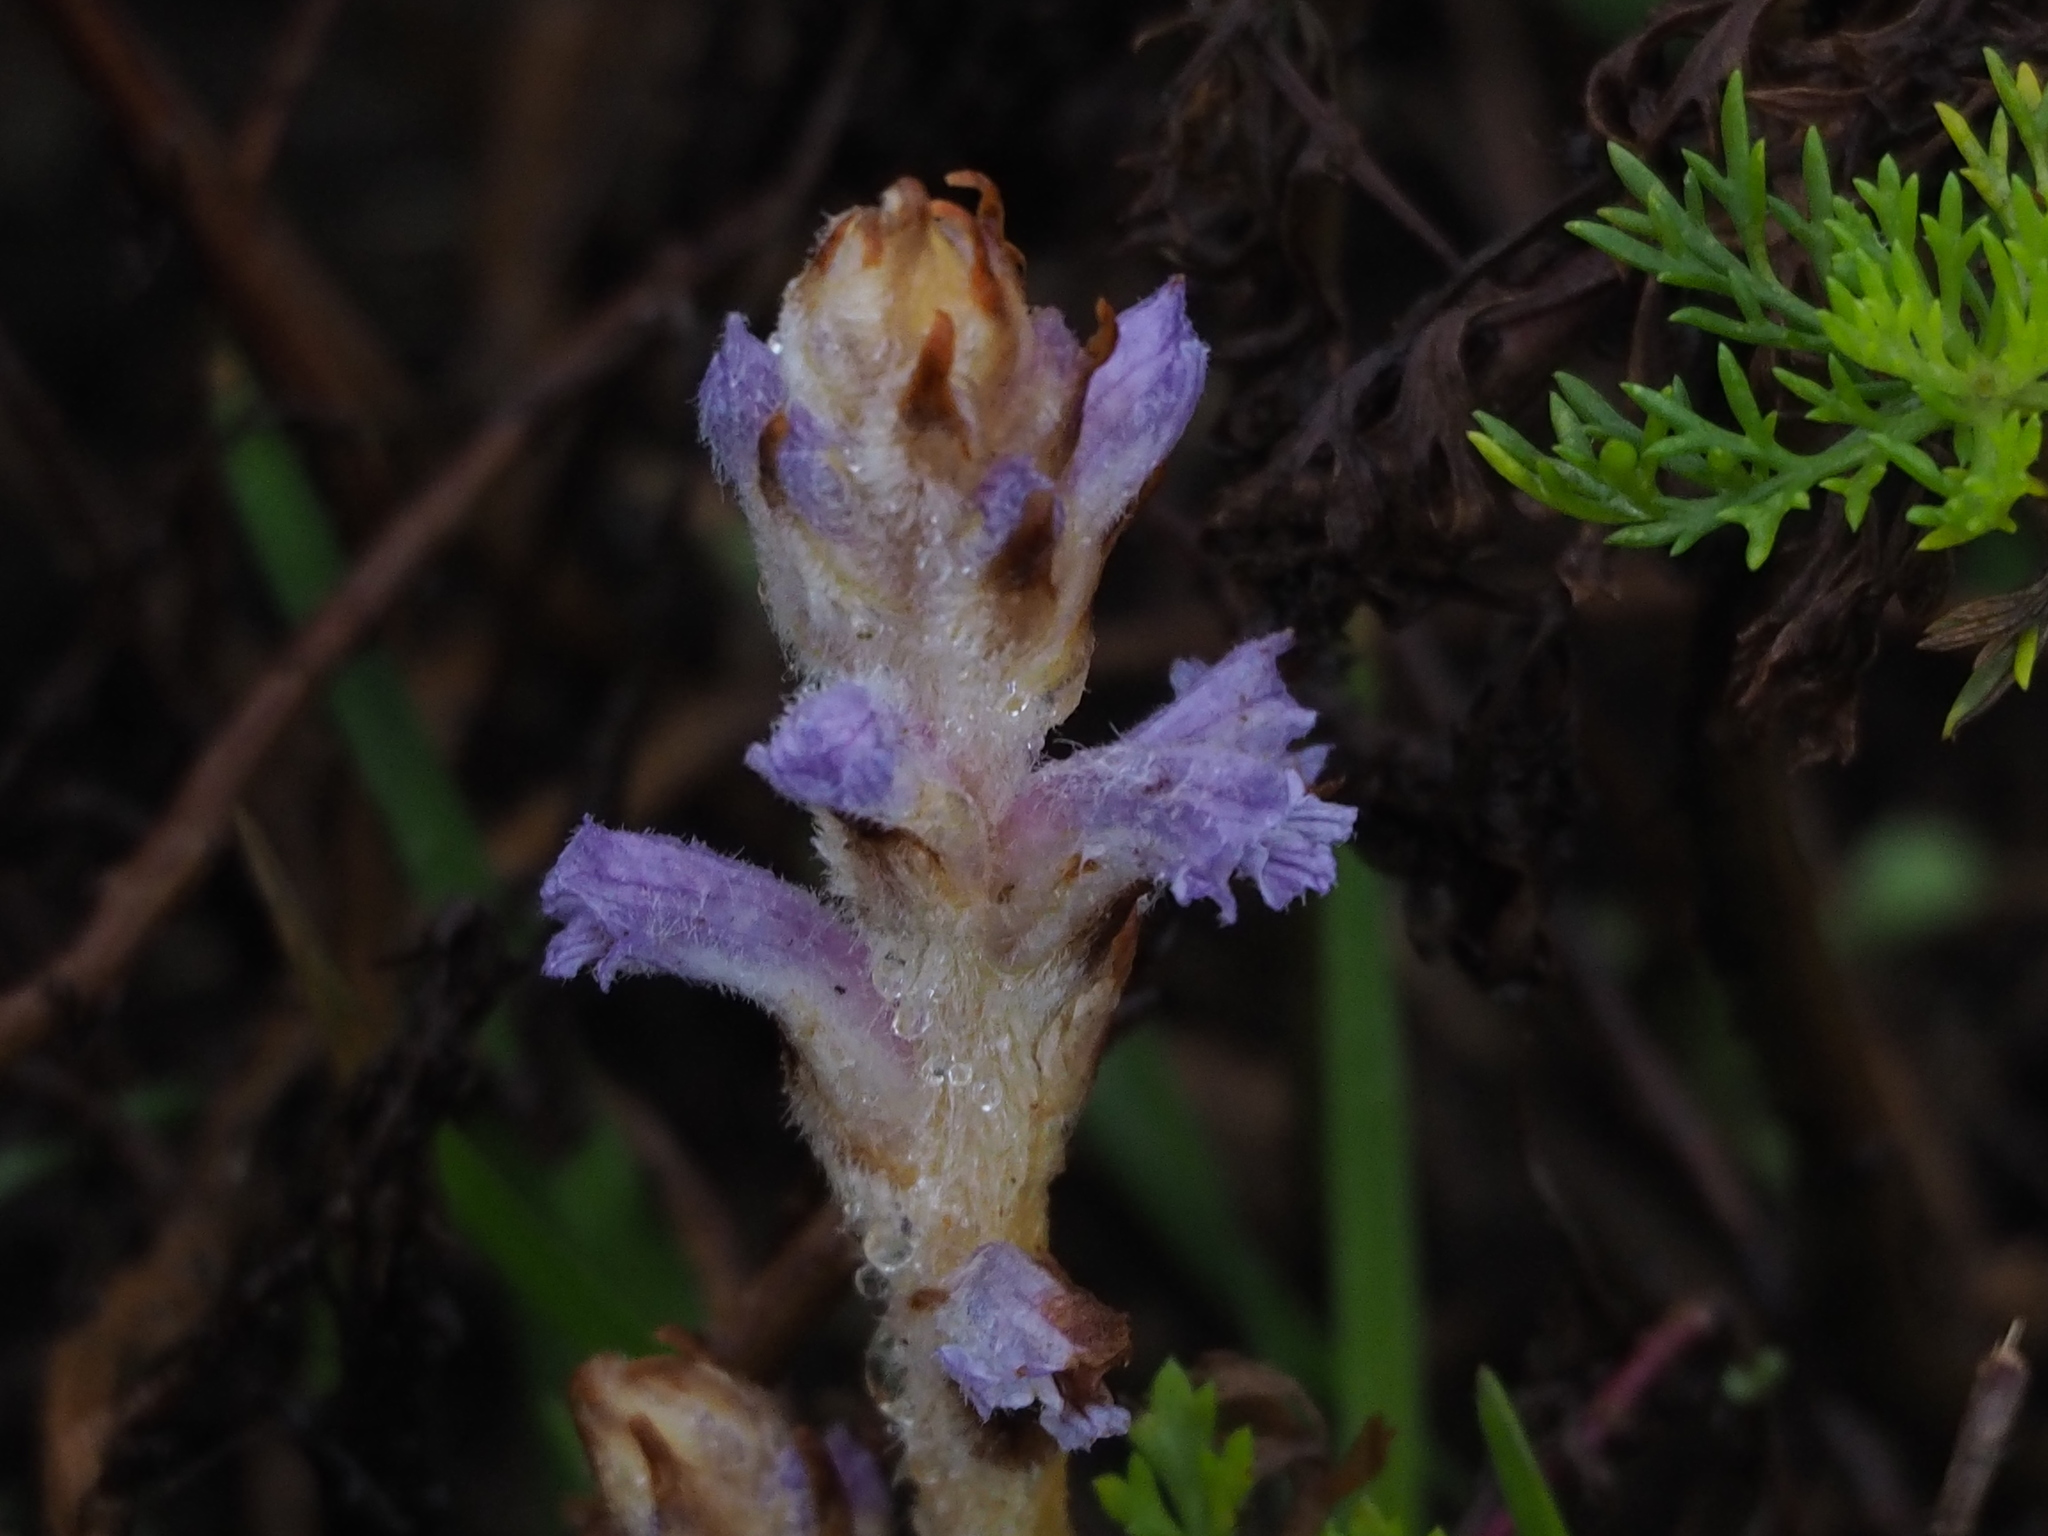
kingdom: Plantae
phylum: Tracheophyta
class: Magnoliopsida
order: Lamiales
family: Orobanchaceae
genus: Orobanche
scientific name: Orobanche coerulescens
